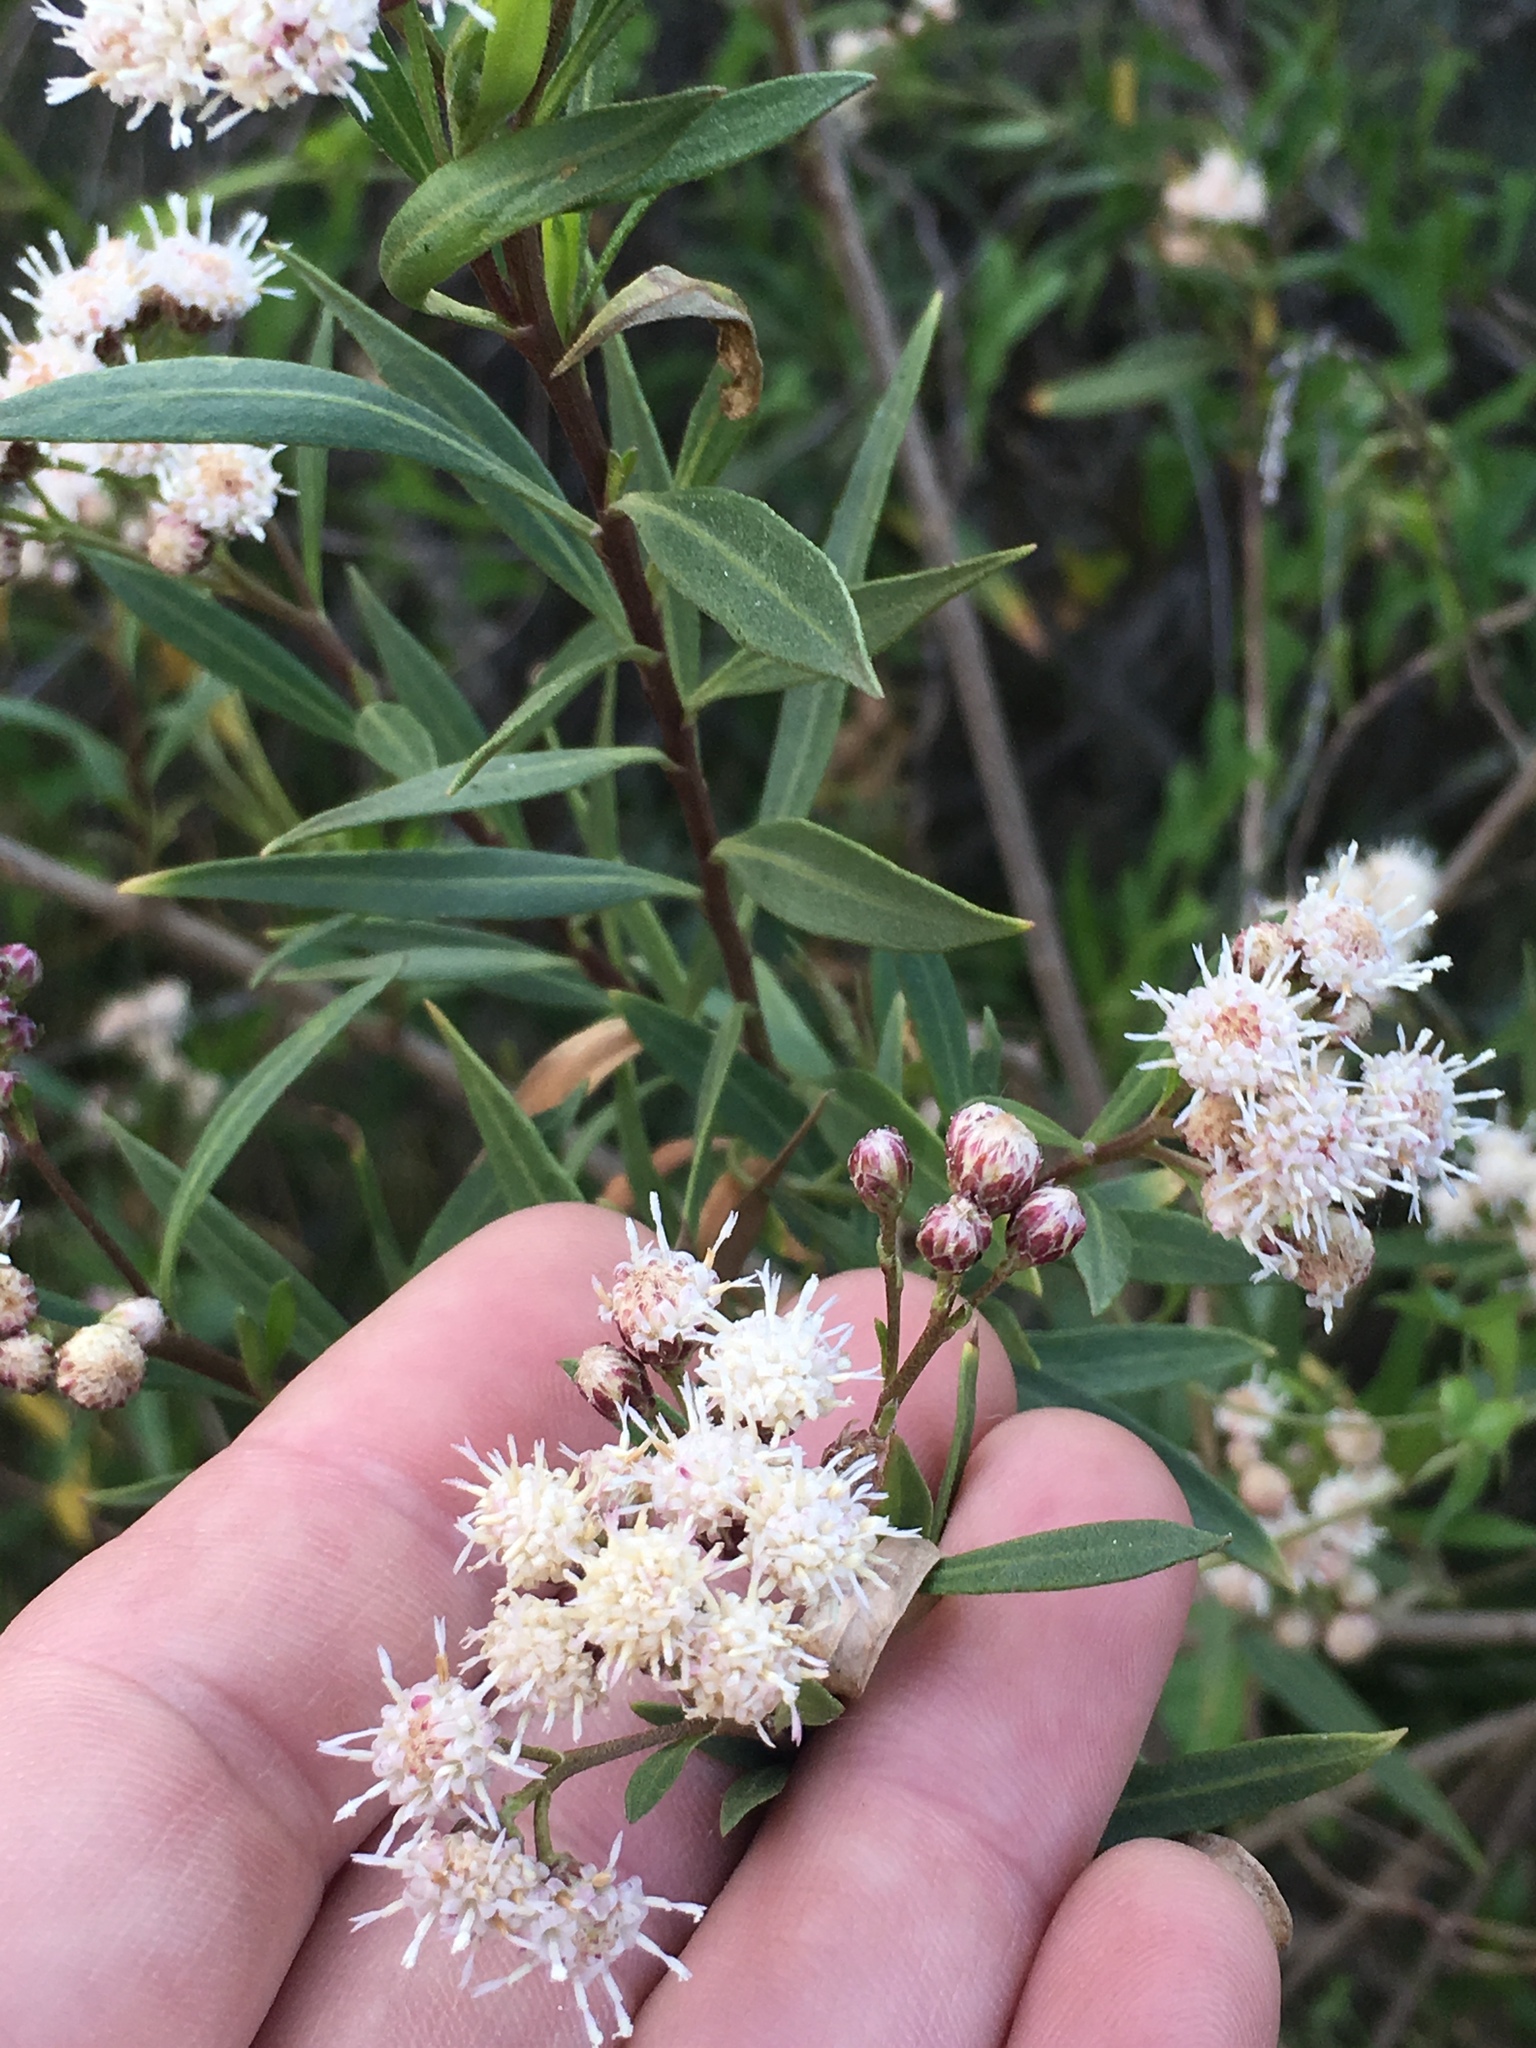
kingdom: Plantae
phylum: Tracheophyta
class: Magnoliopsida
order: Asterales
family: Asteraceae
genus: Baccharis
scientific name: Baccharis salicifolia
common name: Sticky baccharis
